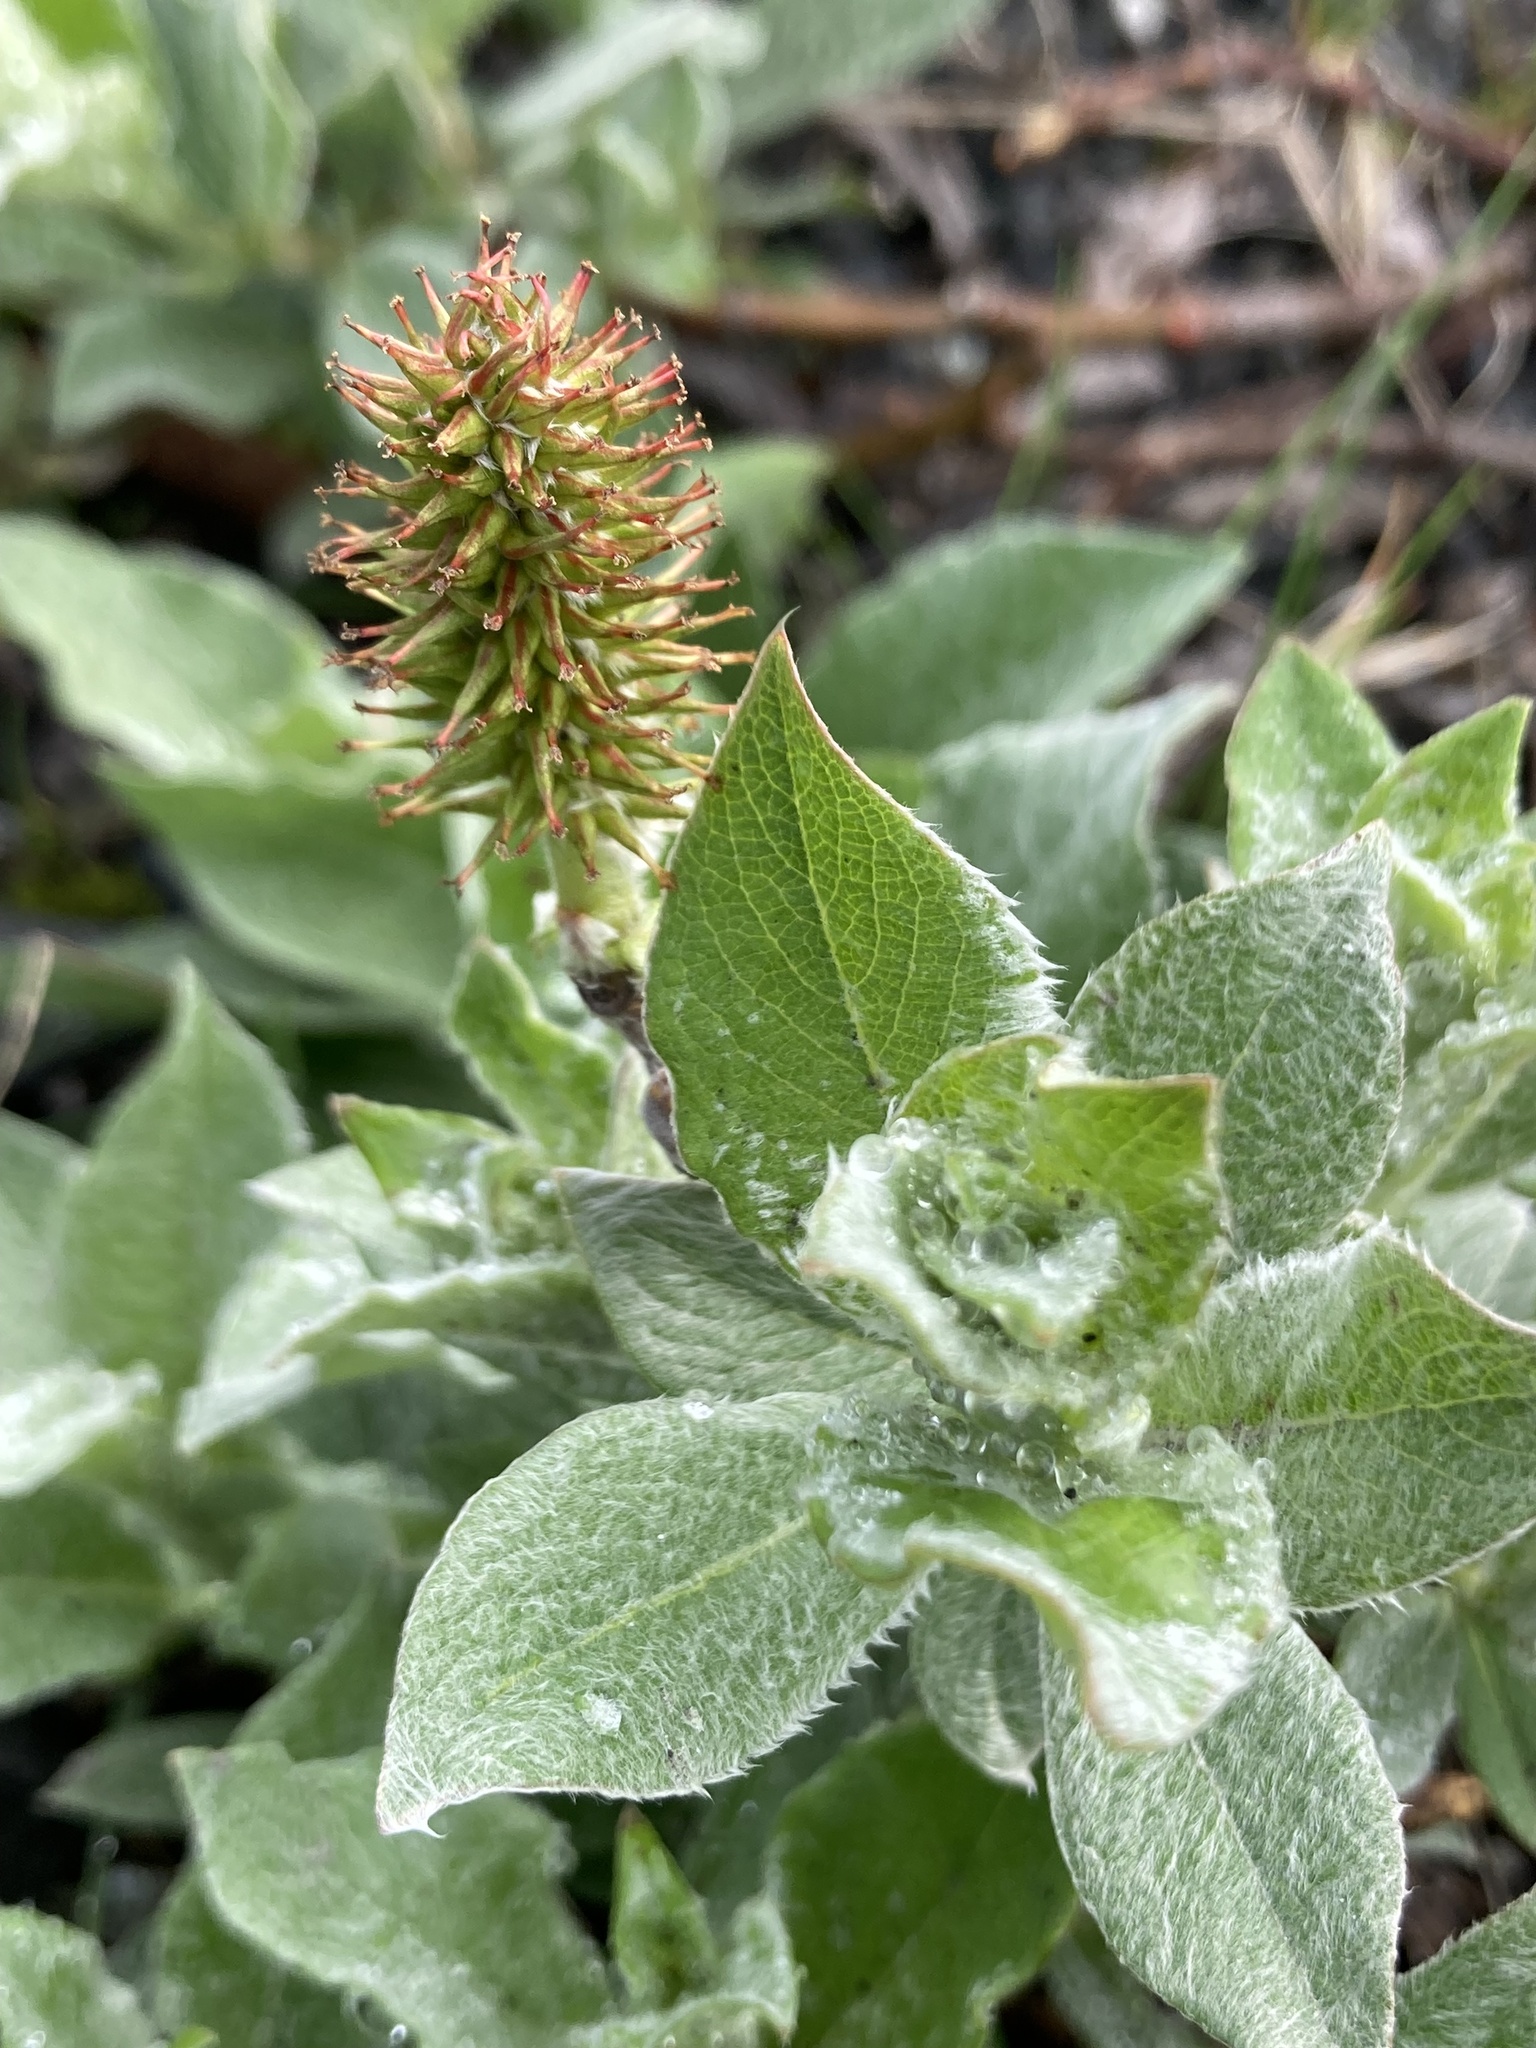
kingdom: Plantae
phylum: Tracheophyta
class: Magnoliopsida
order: Malpighiales
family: Salicaceae
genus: Salix
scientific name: Salix lanata
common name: Woolly willow
